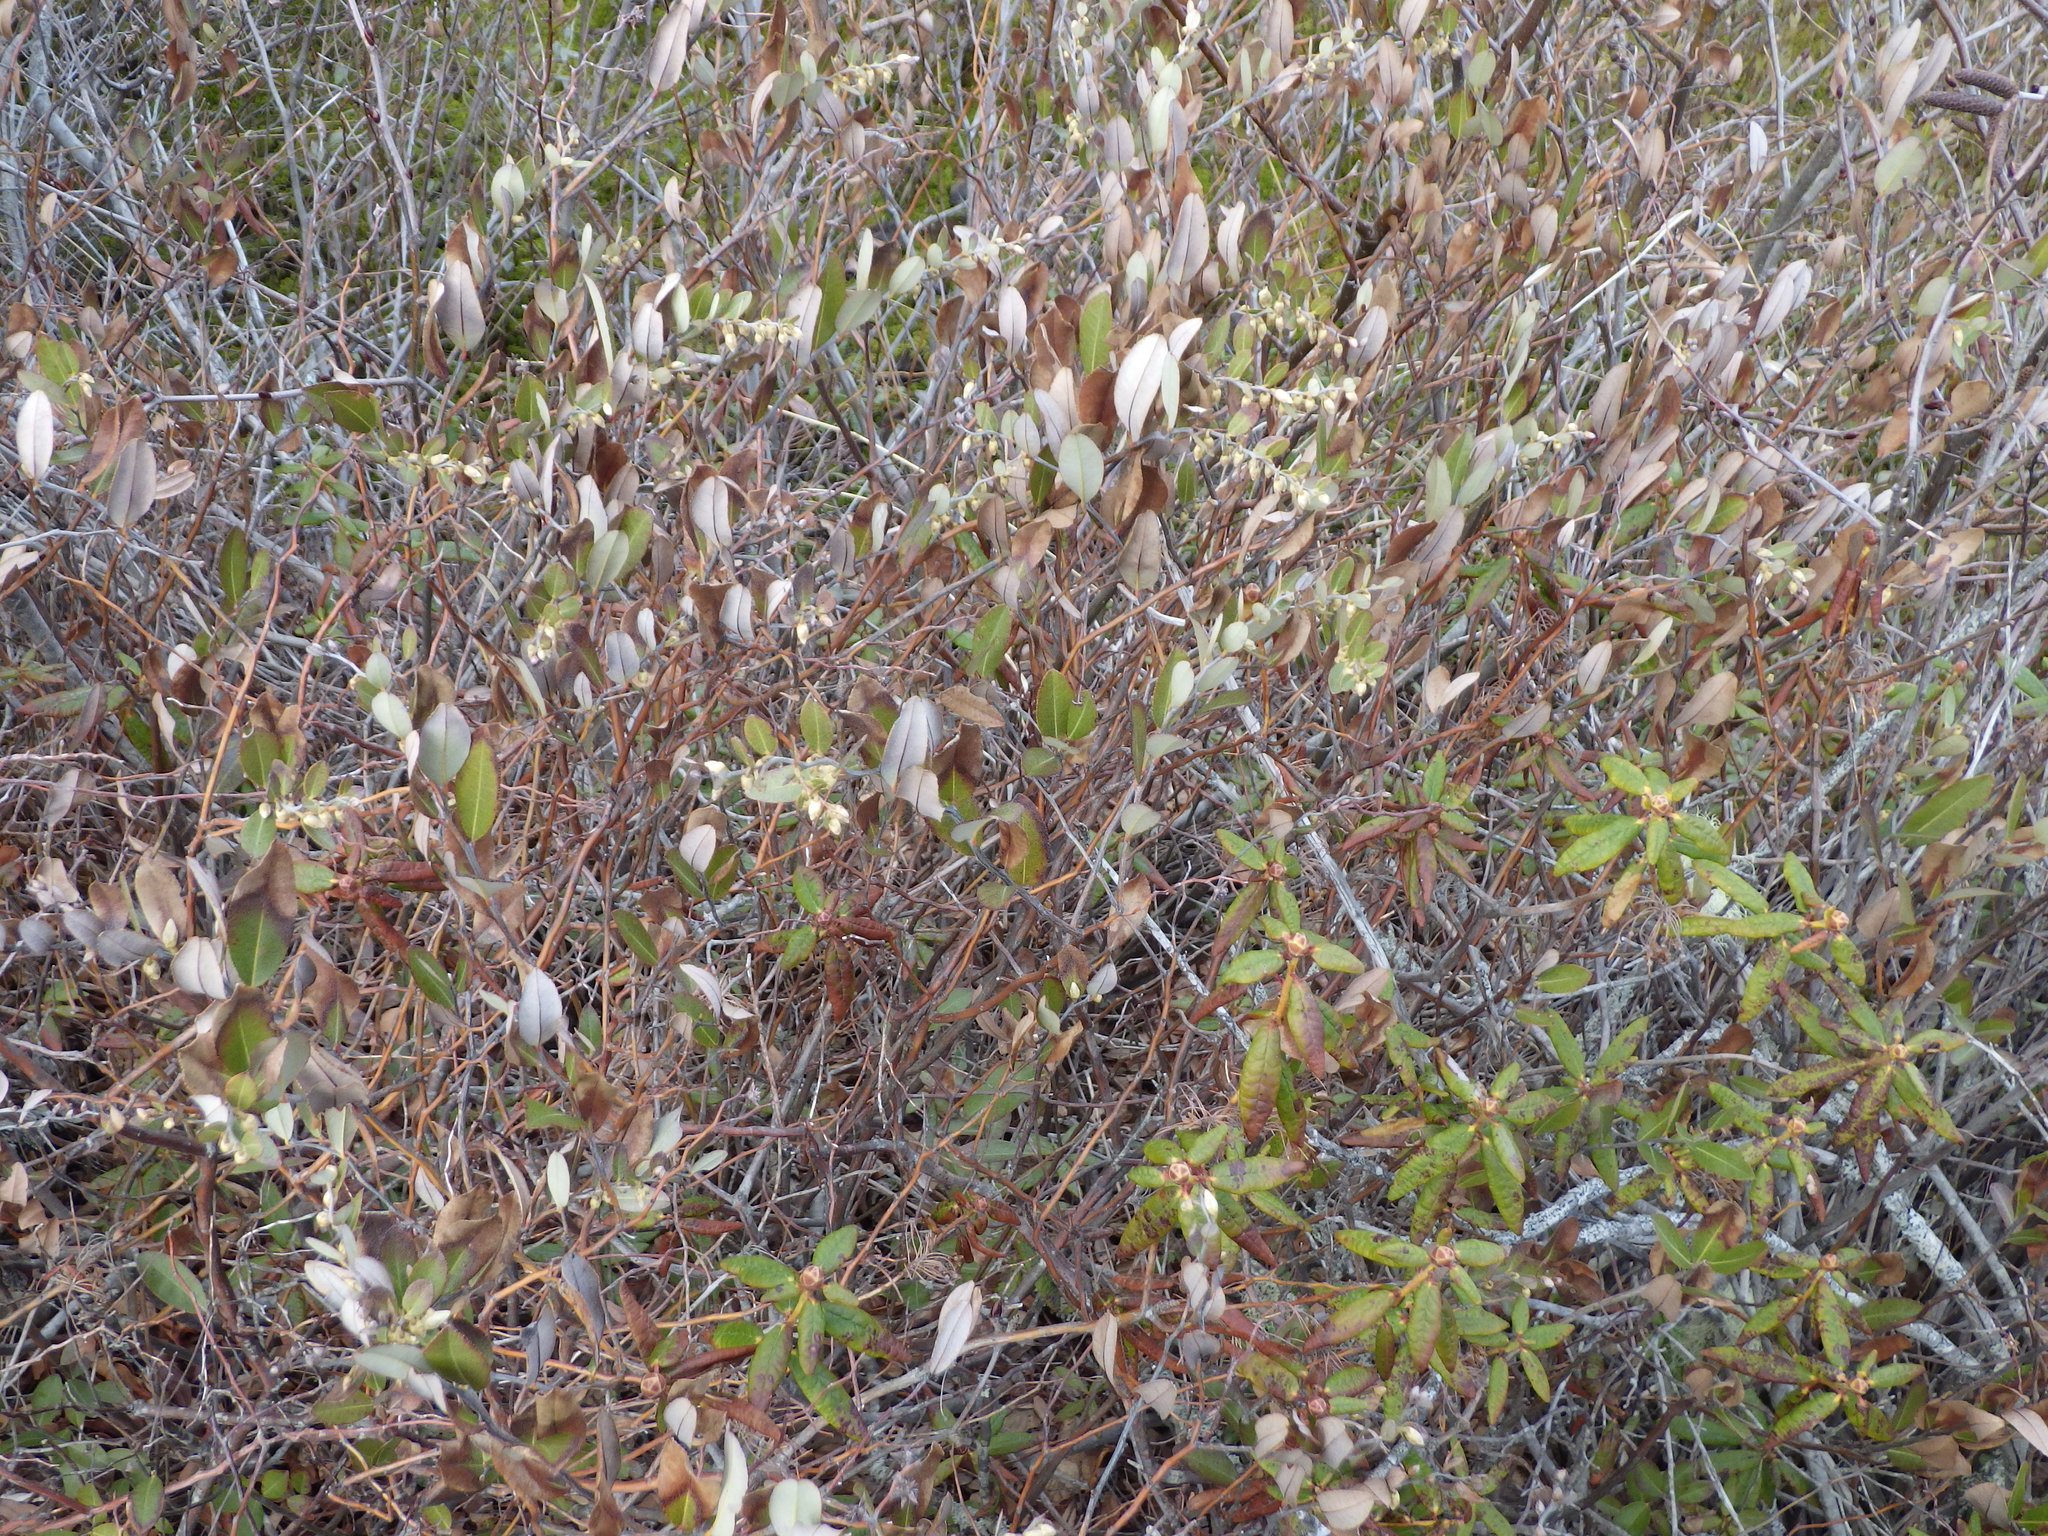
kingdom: Plantae
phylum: Tracheophyta
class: Magnoliopsida
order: Ericales
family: Ericaceae
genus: Chamaedaphne
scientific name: Chamaedaphne calyculata
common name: Leatherleaf
